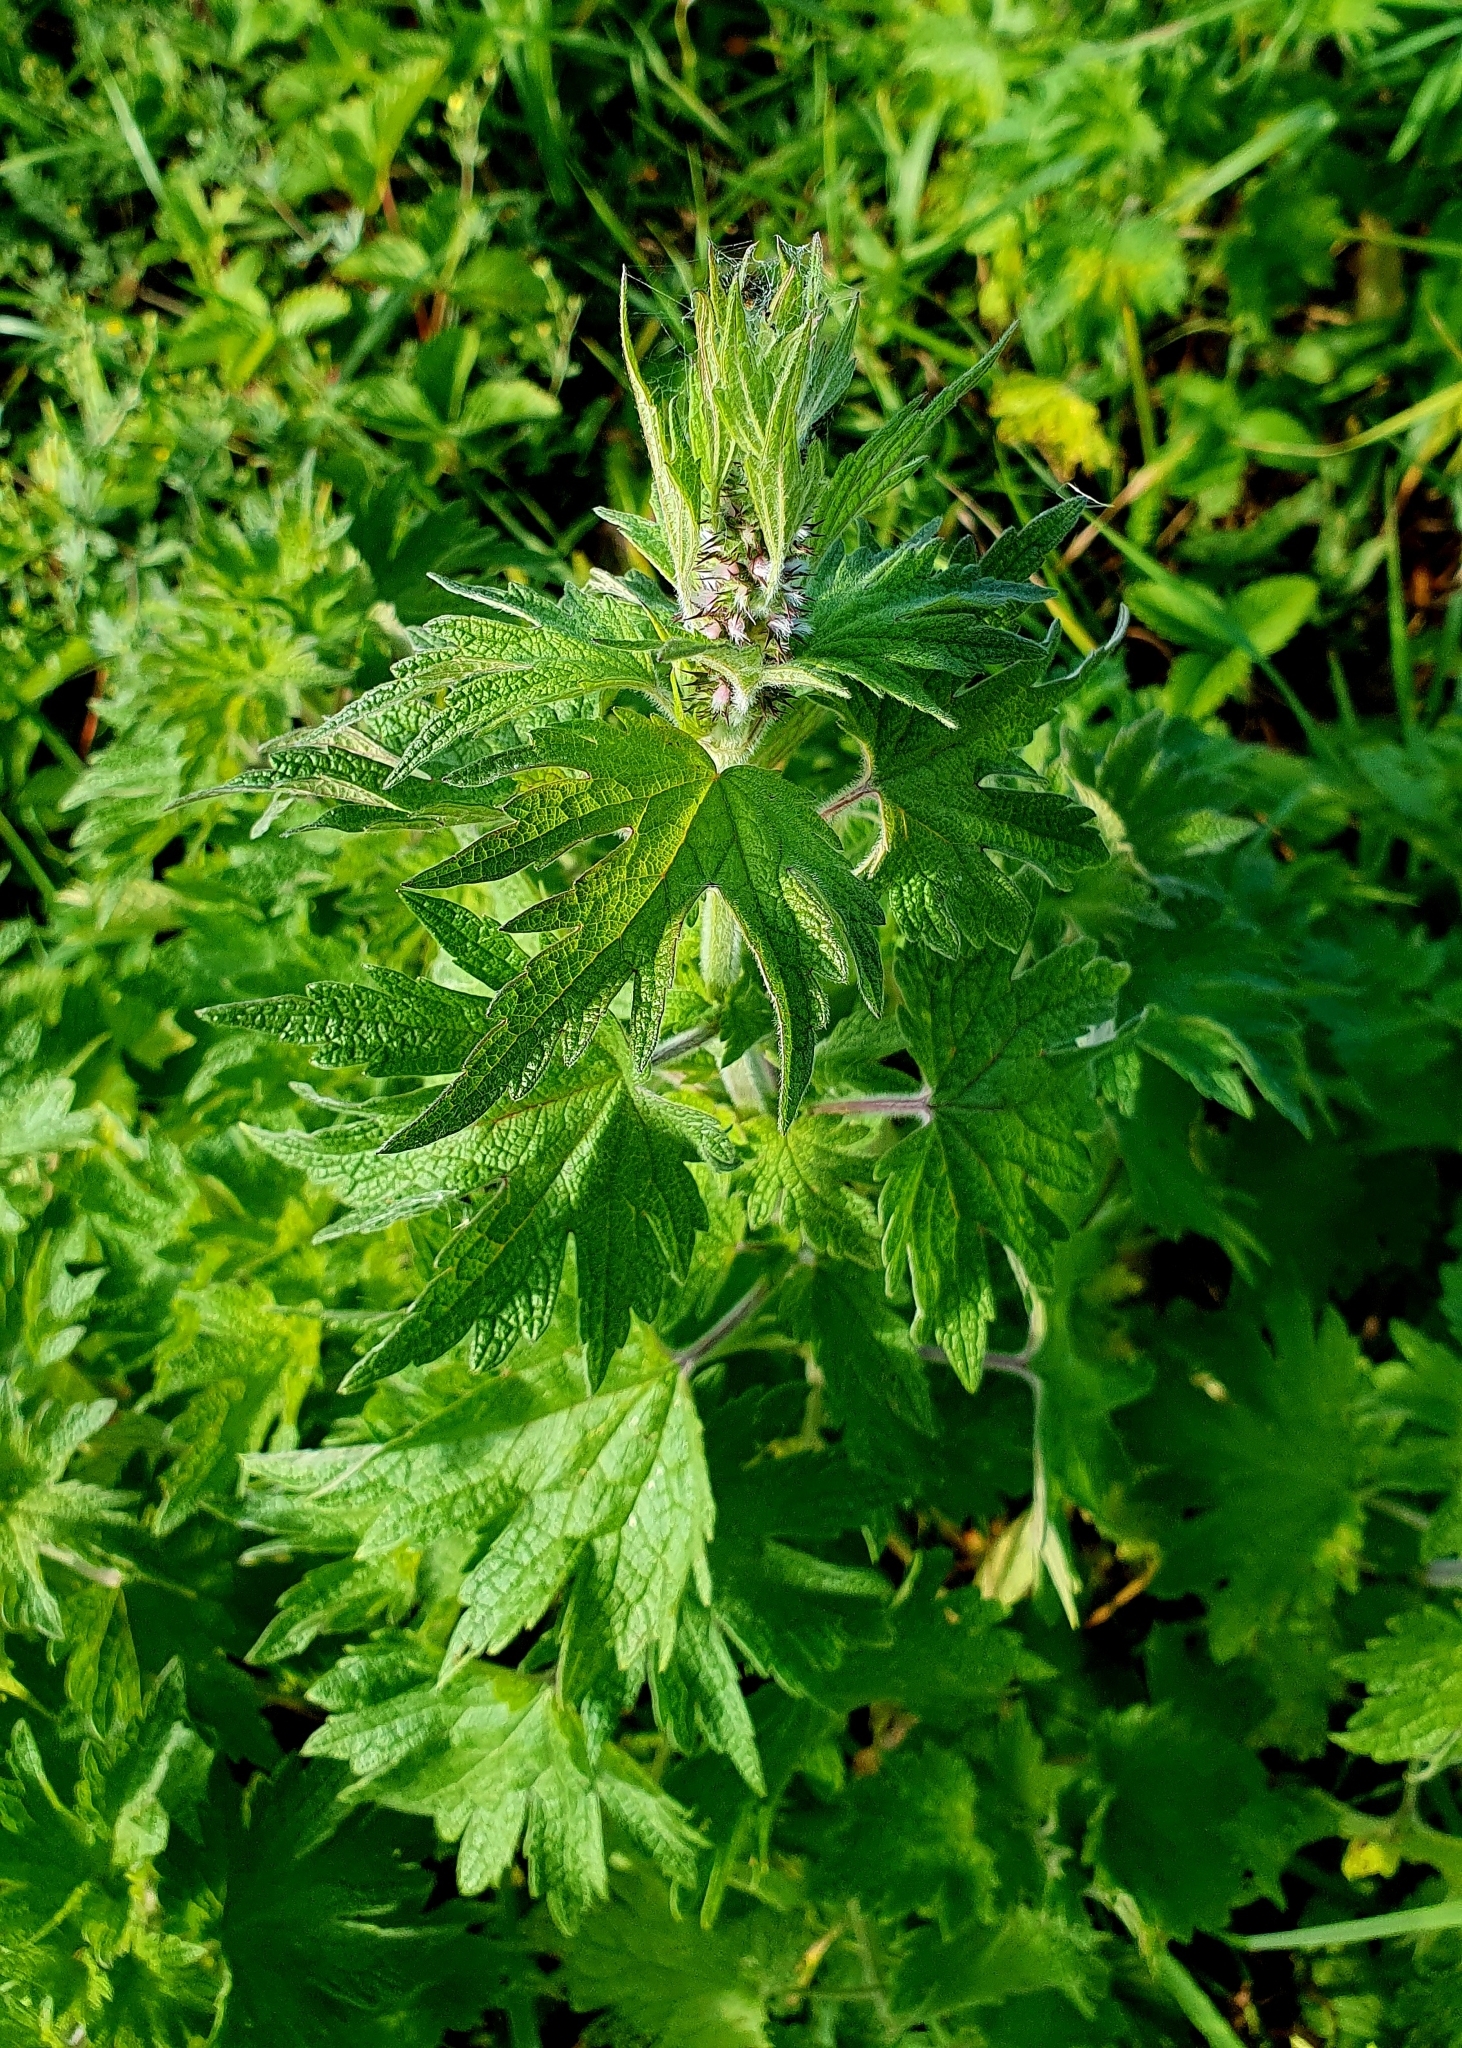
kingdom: Plantae
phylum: Tracheophyta
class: Magnoliopsida
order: Lamiales
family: Lamiaceae
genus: Leonurus
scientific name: Leonurus quinquelobatus
